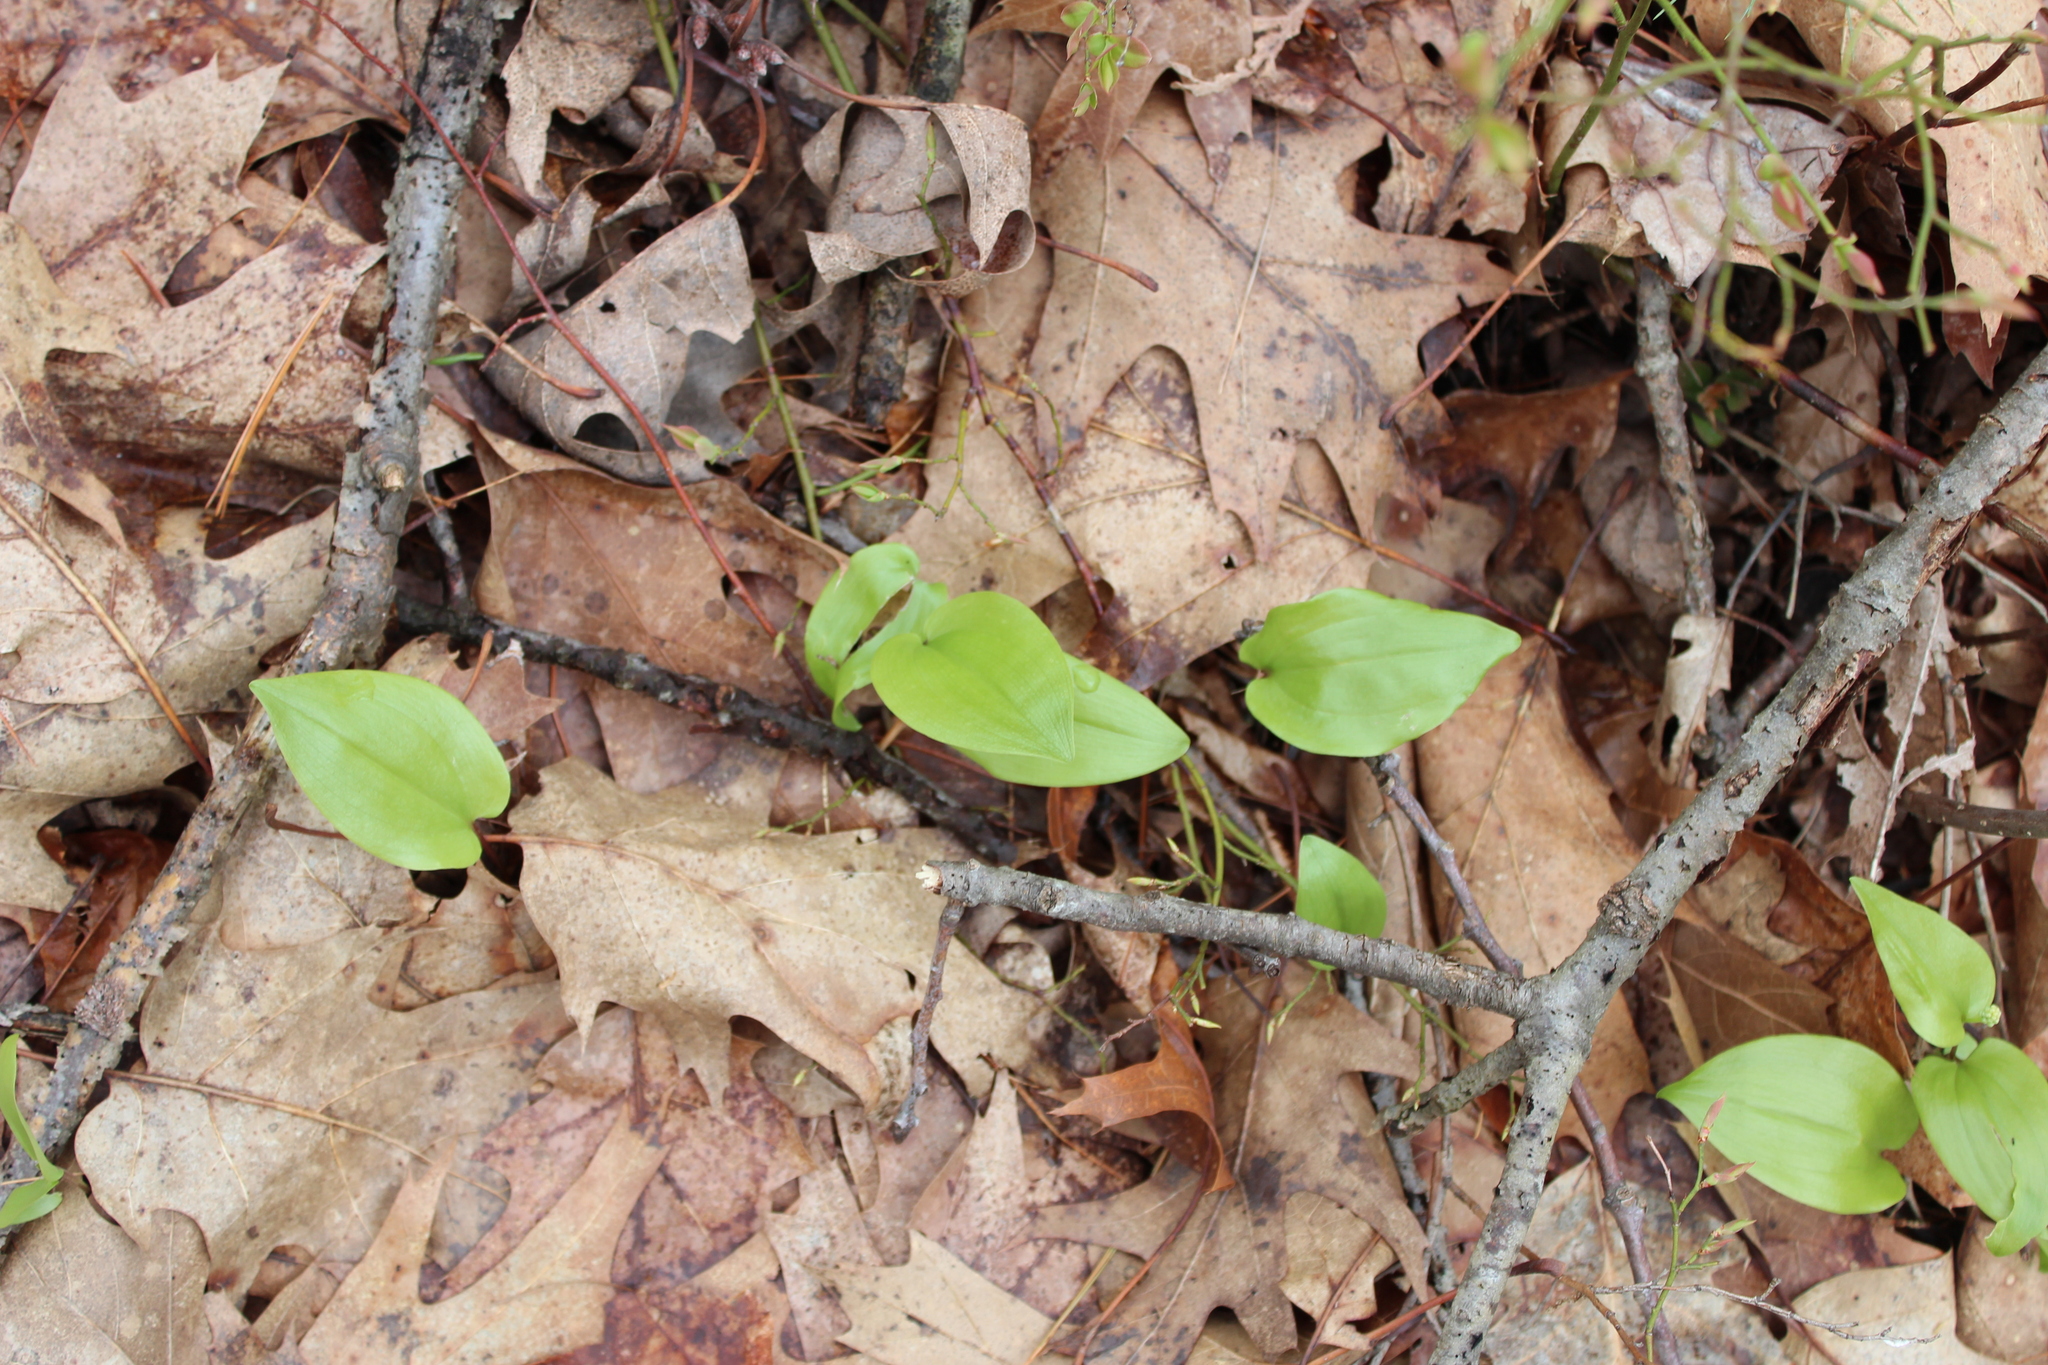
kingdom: Plantae
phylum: Tracheophyta
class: Liliopsida
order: Asparagales
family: Asparagaceae
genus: Maianthemum
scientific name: Maianthemum canadense
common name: False lily-of-the-valley
